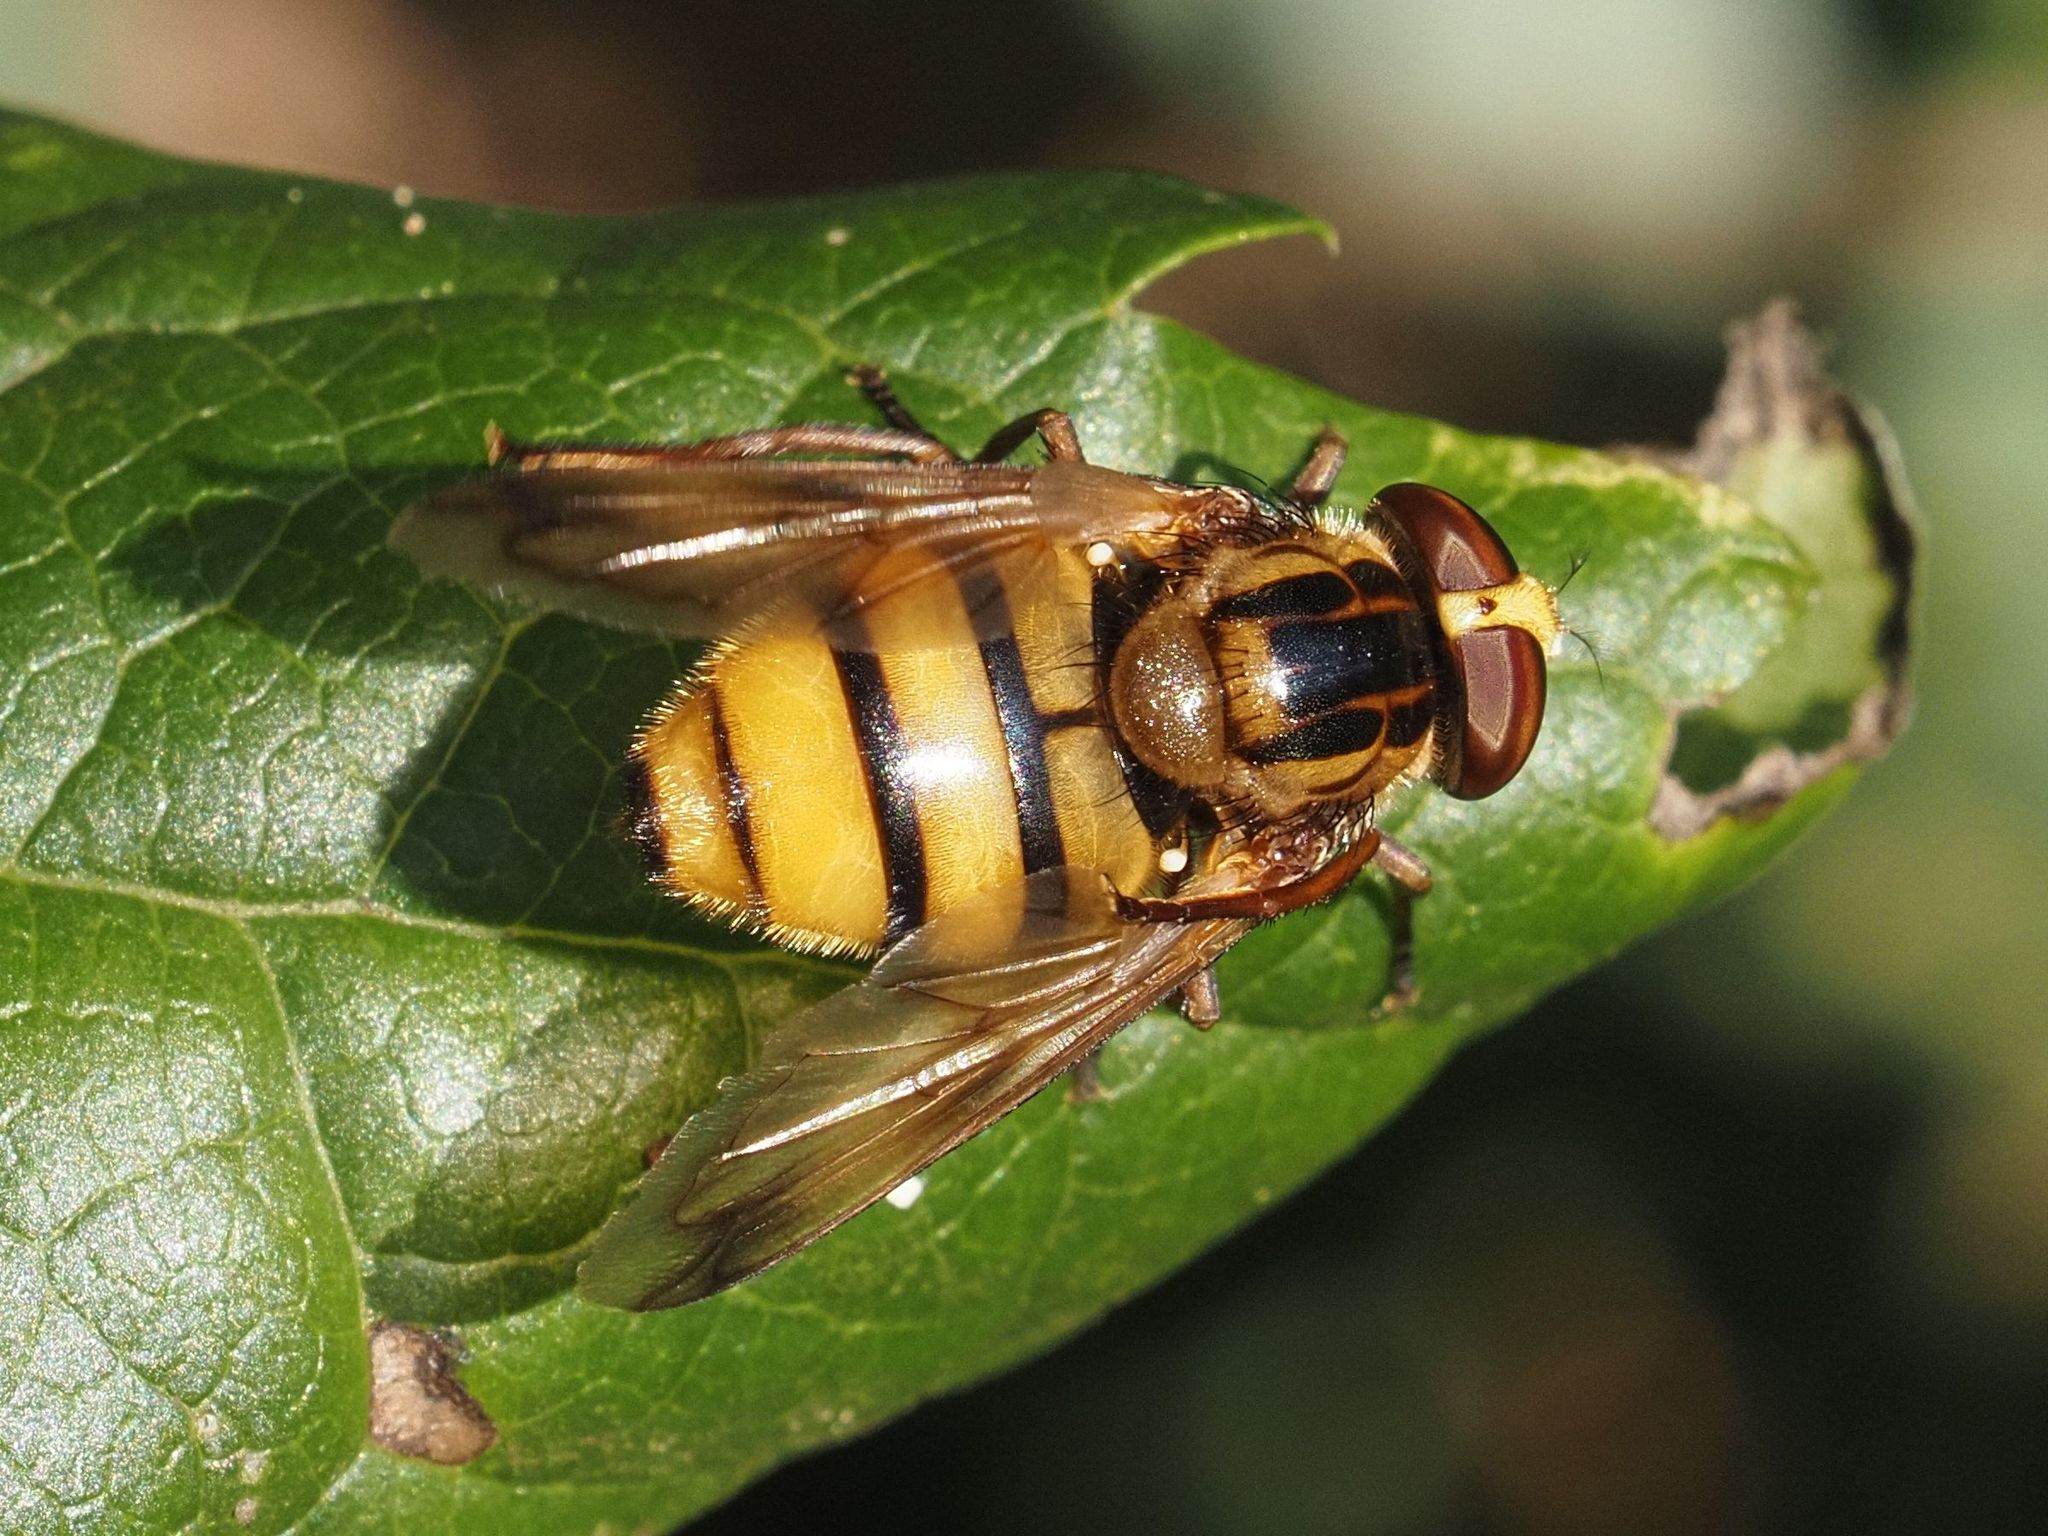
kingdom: Animalia
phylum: Arthropoda
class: Insecta
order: Diptera
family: Syrphidae
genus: Volucella
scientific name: Volucella inanis
